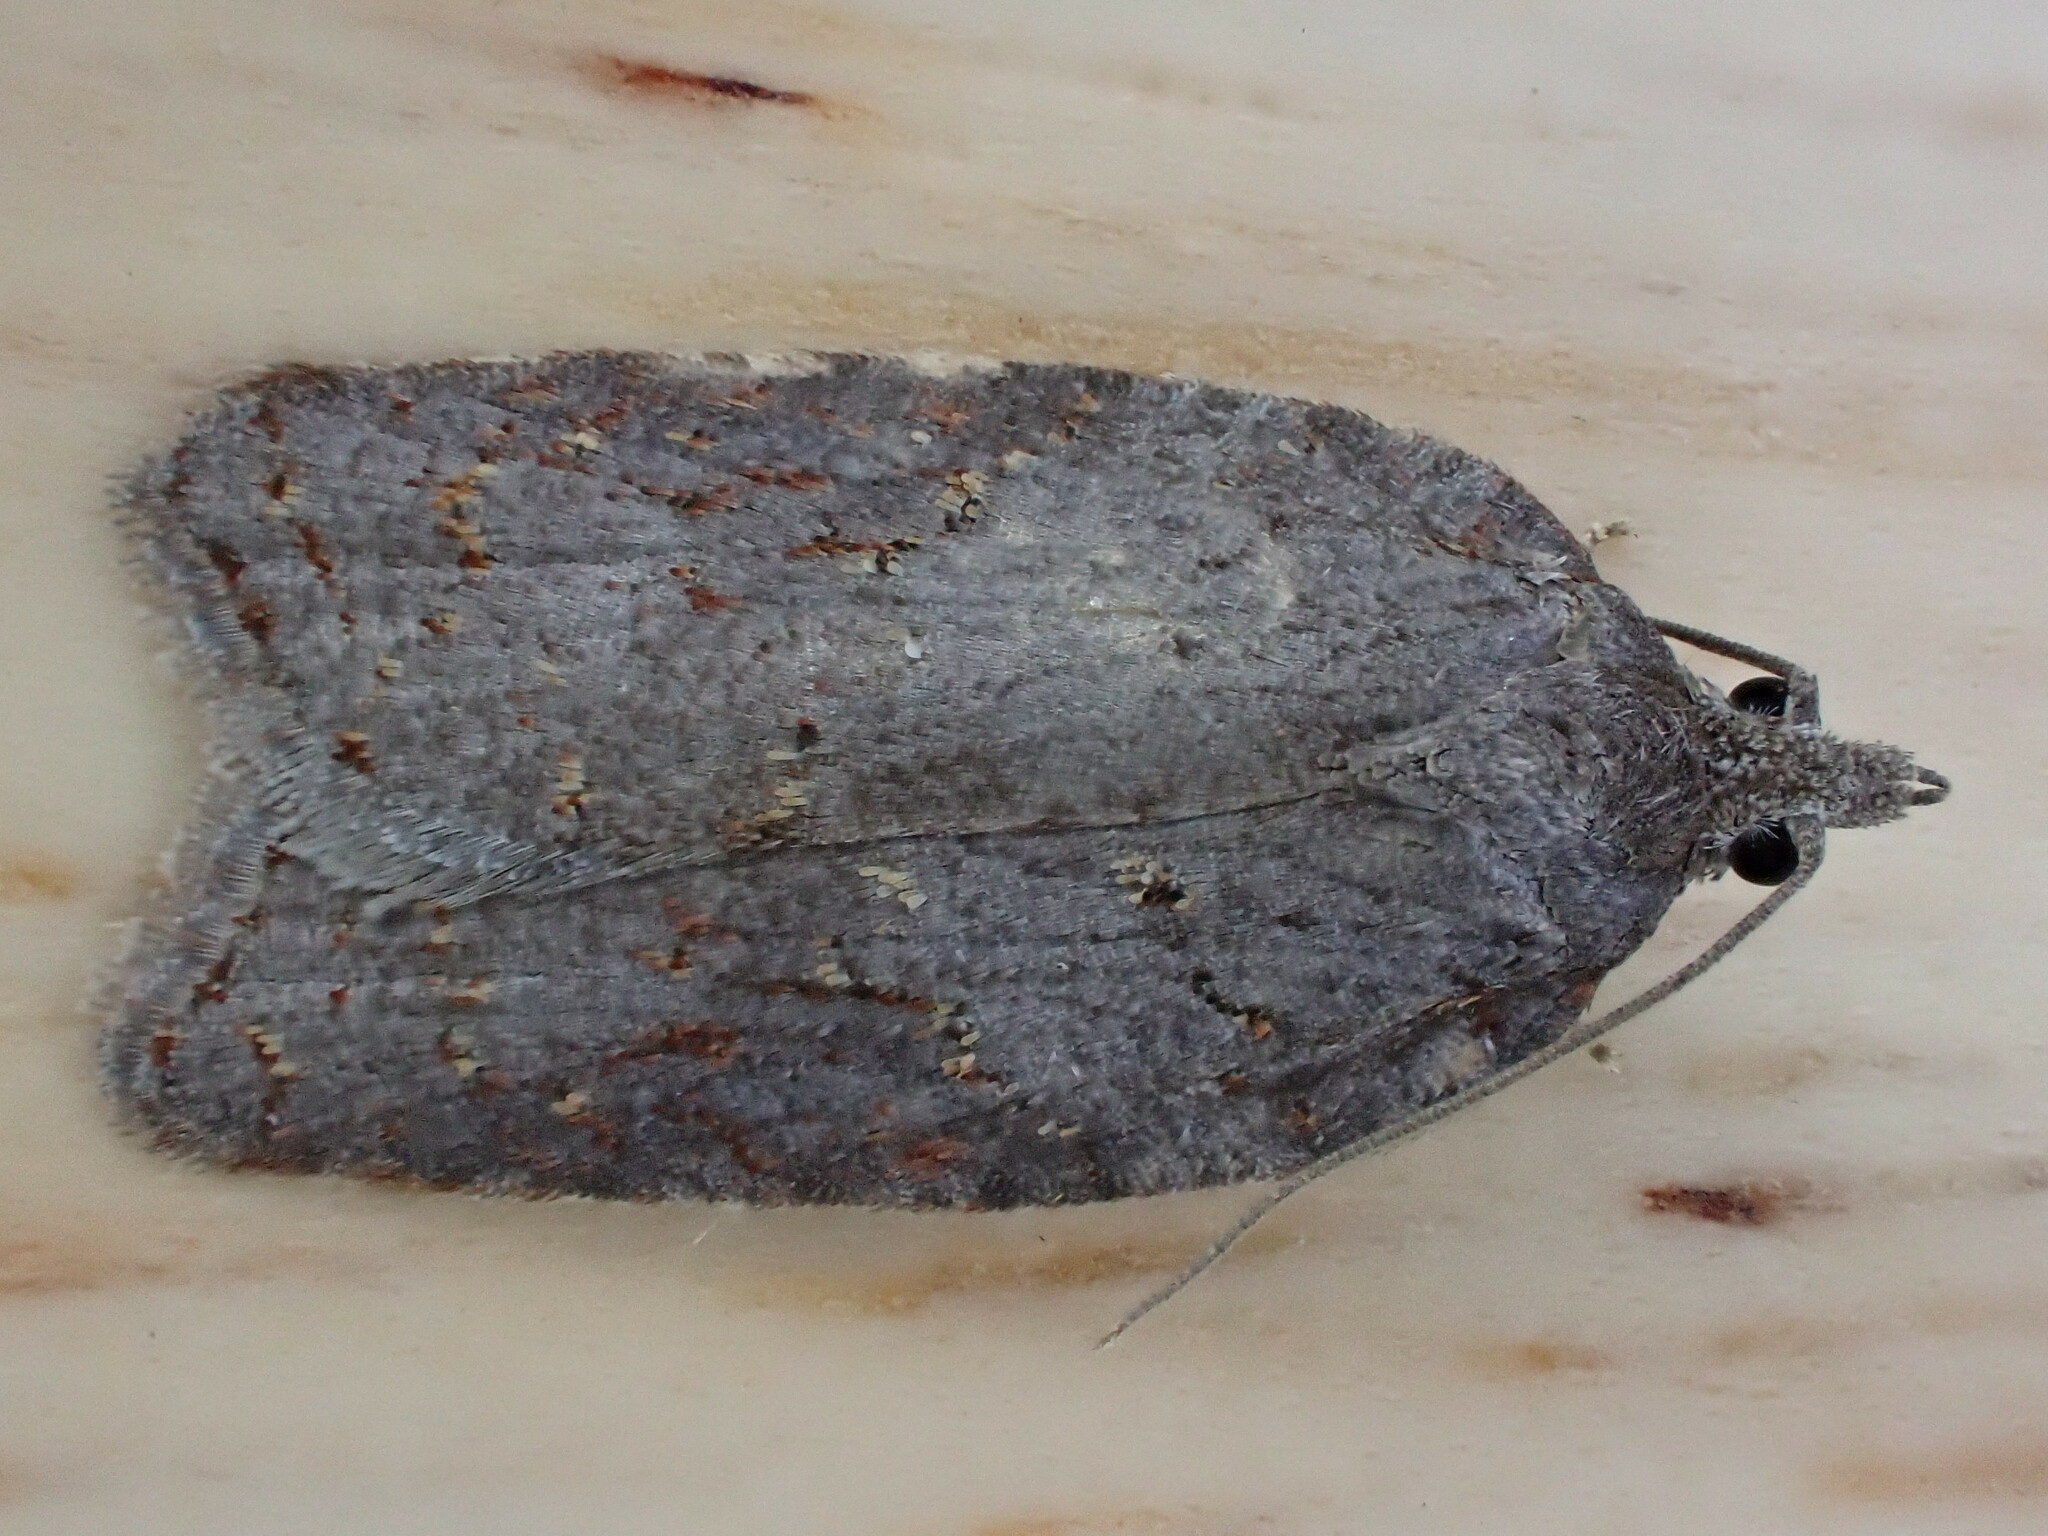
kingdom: Animalia
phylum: Arthropoda
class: Insecta
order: Lepidoptera
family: Tortricidae
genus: Acleris
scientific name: Acleris sparsana
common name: Ashy button
